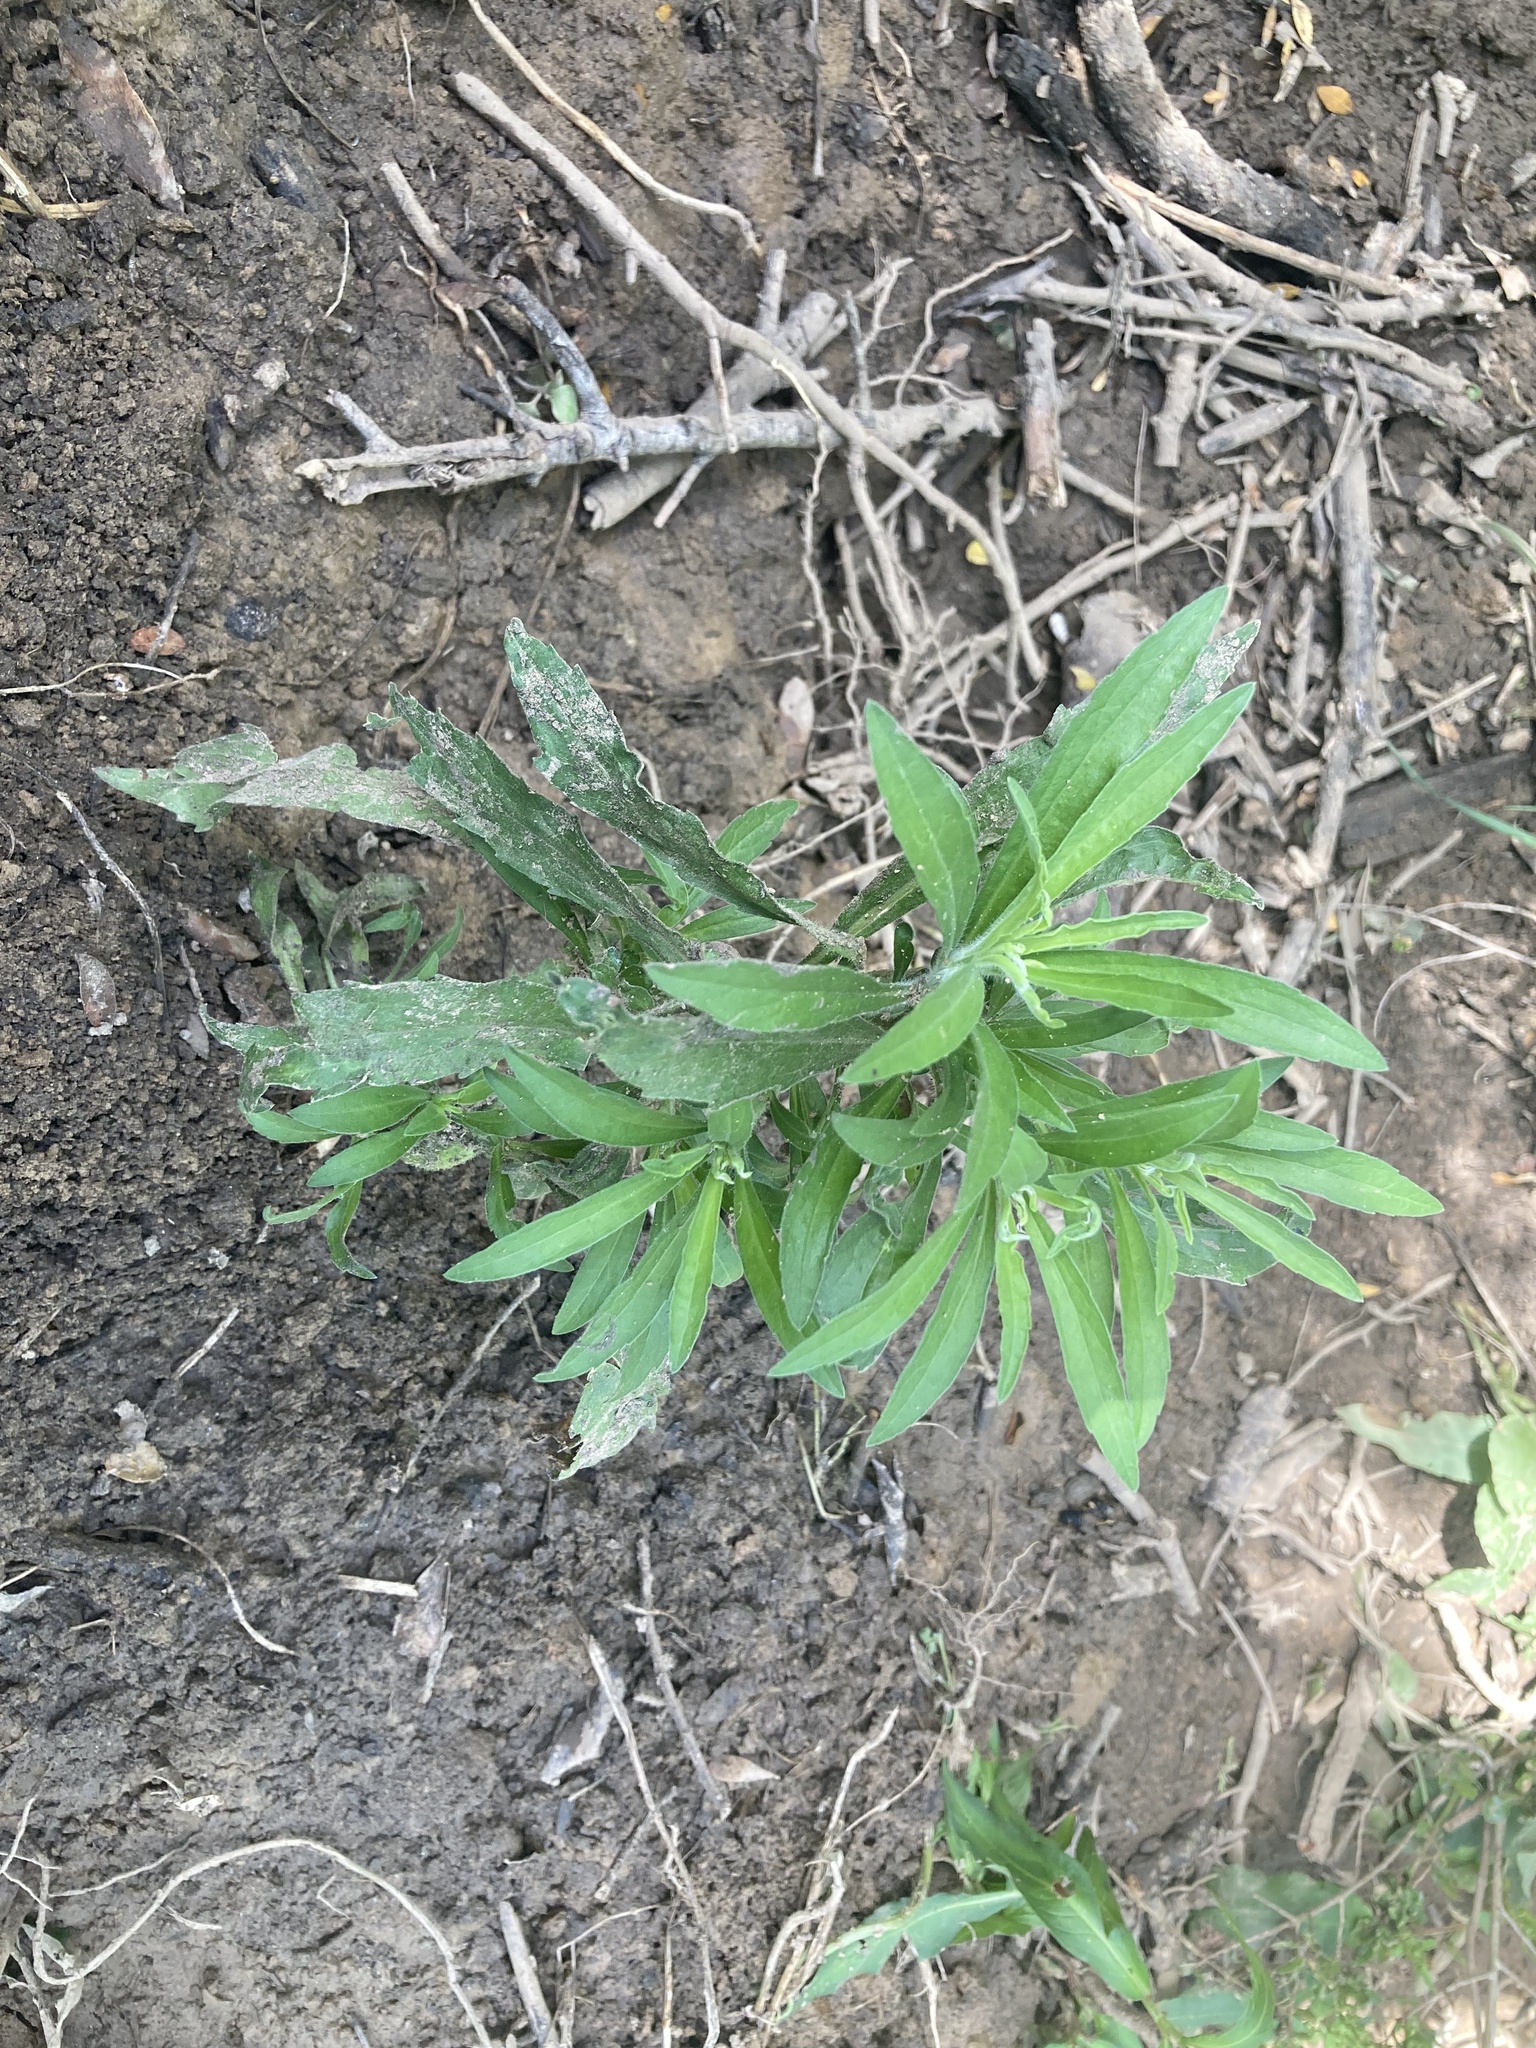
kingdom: Plantae
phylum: Tracheophyta
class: Magnoliopsida
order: Asterales
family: Asteraceae
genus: Erigeron
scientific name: Erigeron sumatrensis
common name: Daisy
